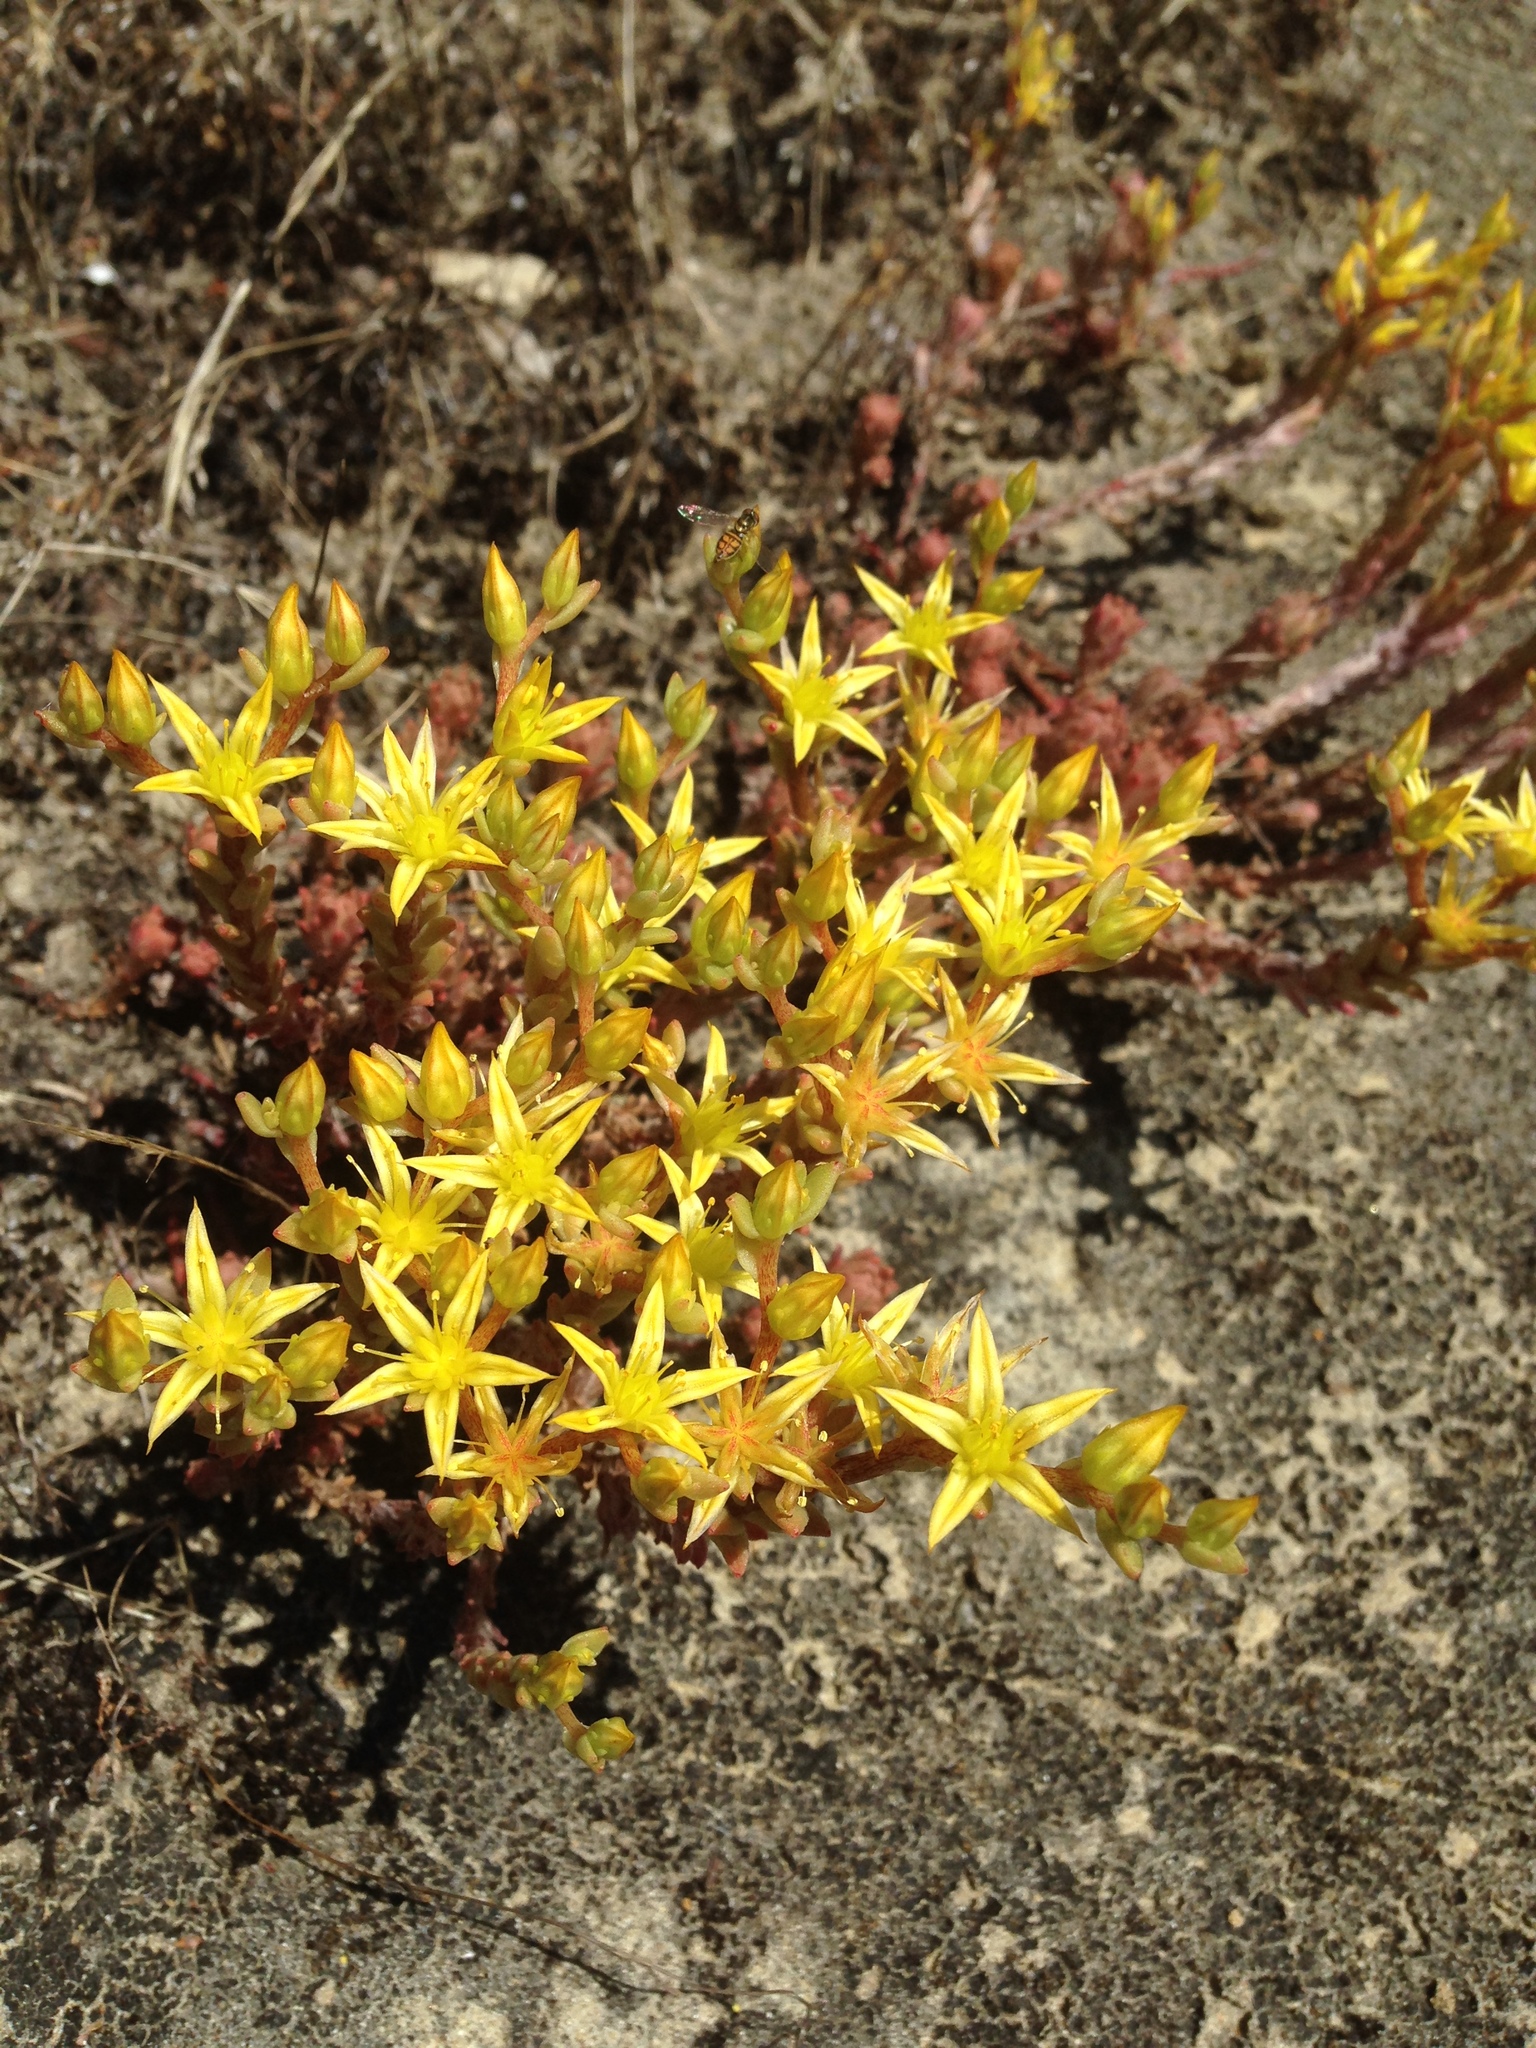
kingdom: Plantae
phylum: Tracheophyta
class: Magnoliopsida
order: Saxifragales
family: Crassulaceae
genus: Sedum
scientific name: Sedum radiatum
